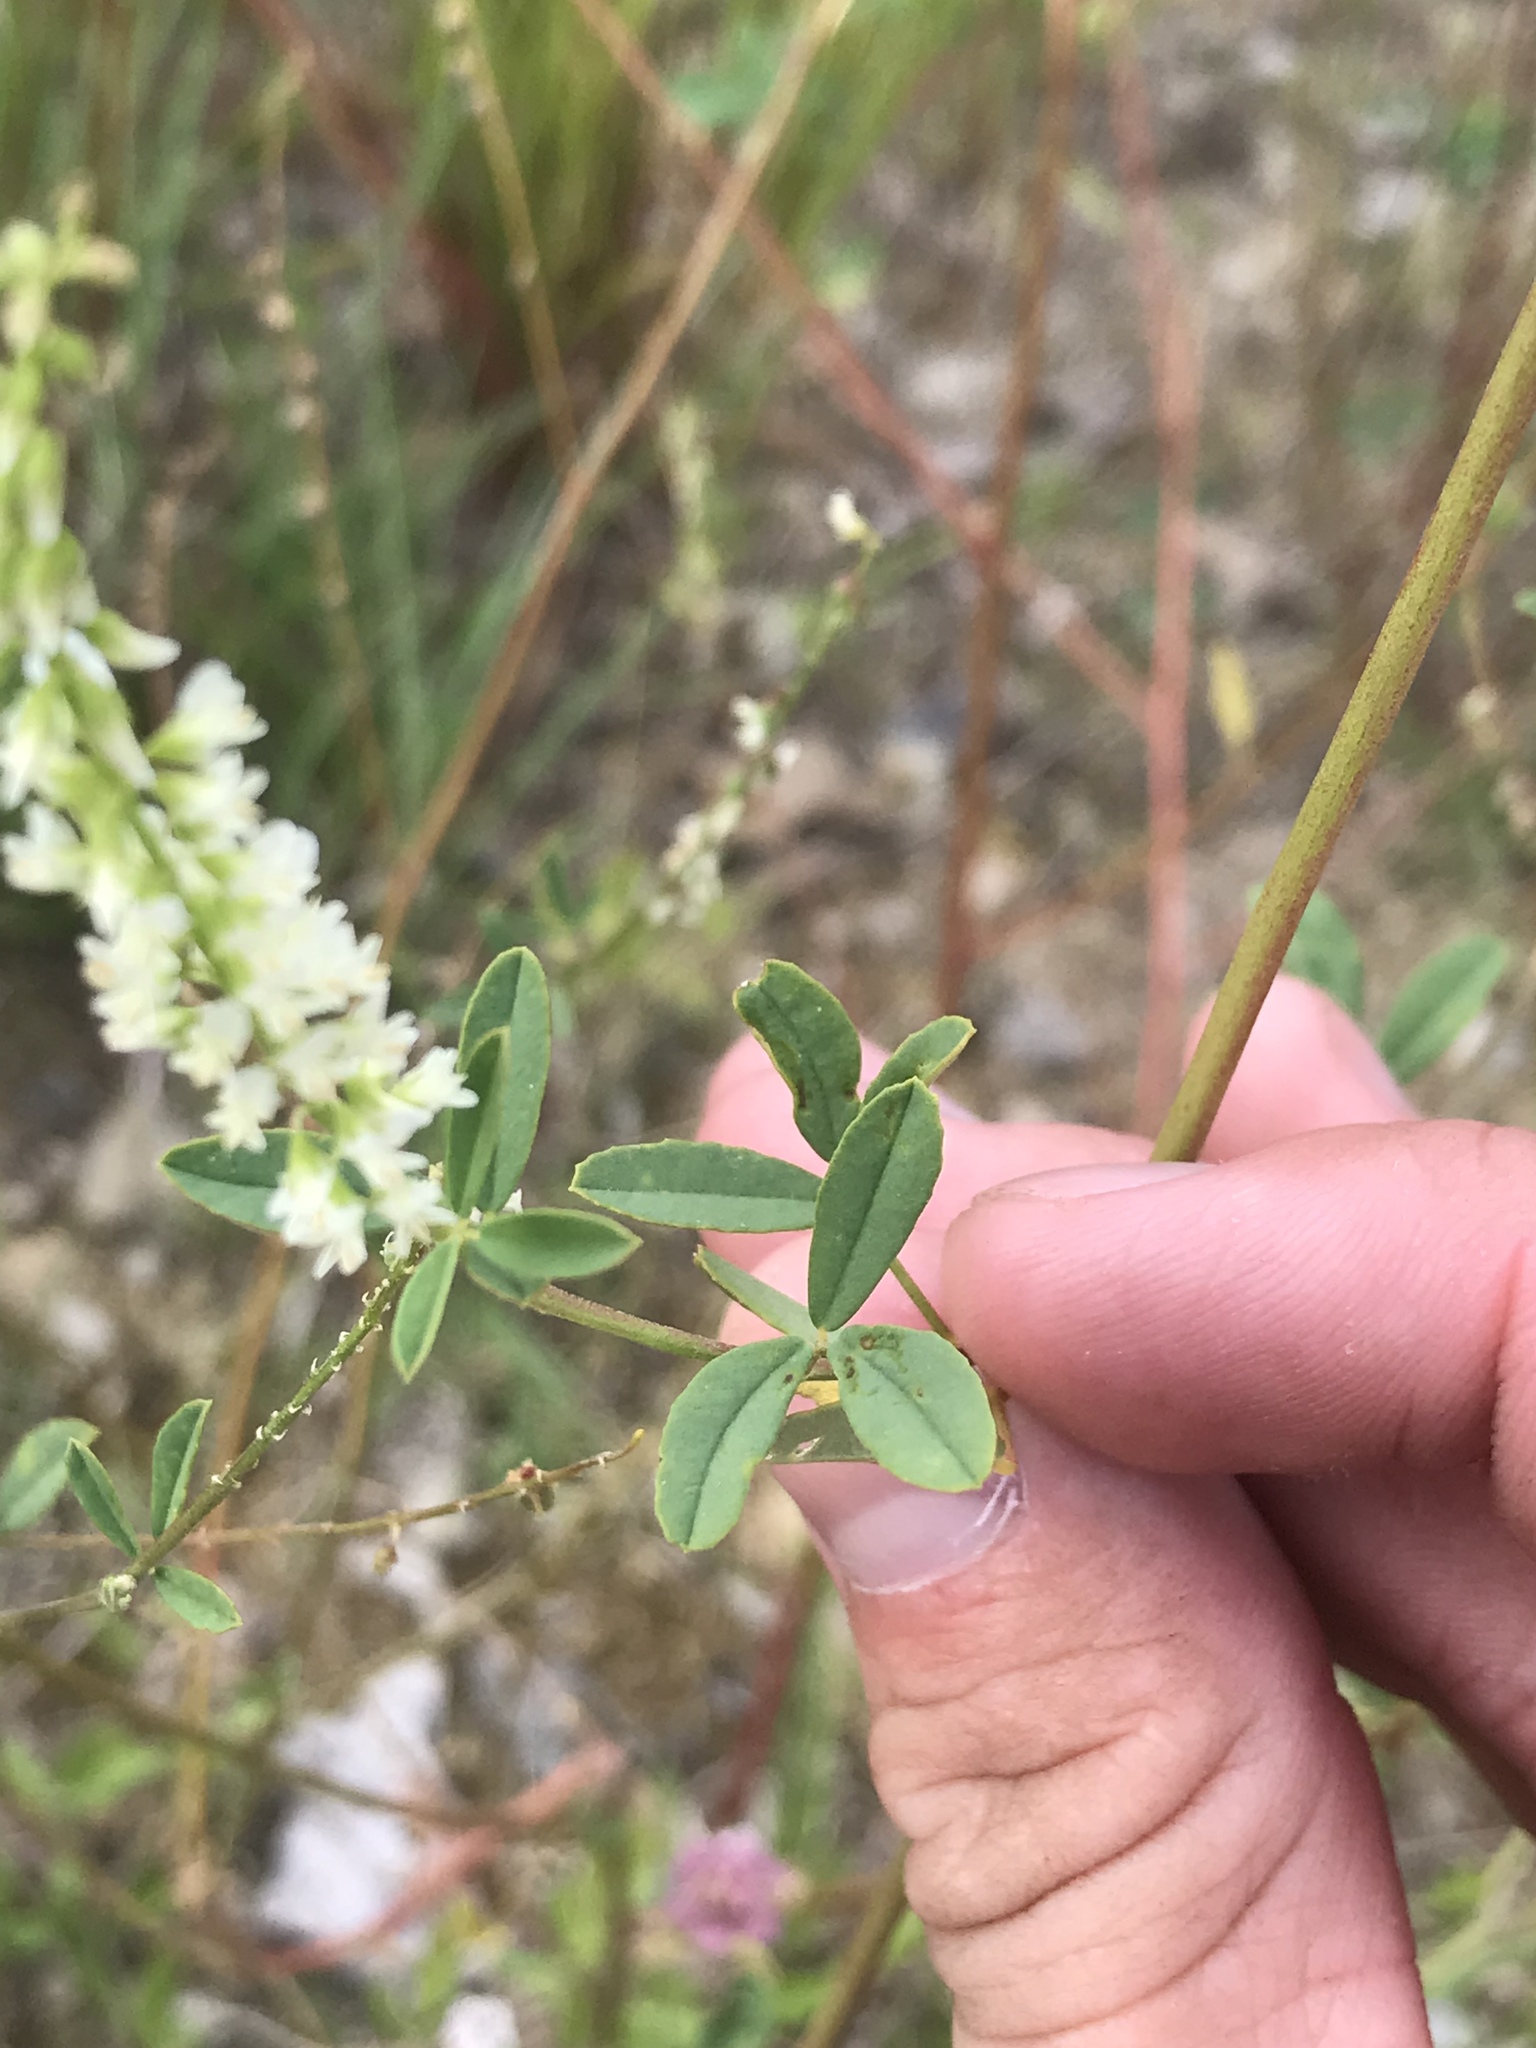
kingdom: Plantae
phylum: Tracheophyta
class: Magnoliopsida
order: Fabales
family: Fabaceae
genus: Melilotus
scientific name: Melilotus albus
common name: White melilot
